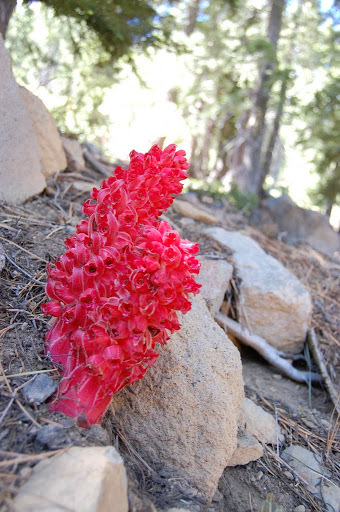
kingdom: Plantae
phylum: Tracheophyta
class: Magnoliopsida
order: Ericales
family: Ericaceae
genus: Sarcodes
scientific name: Sarcodes sanguinea
